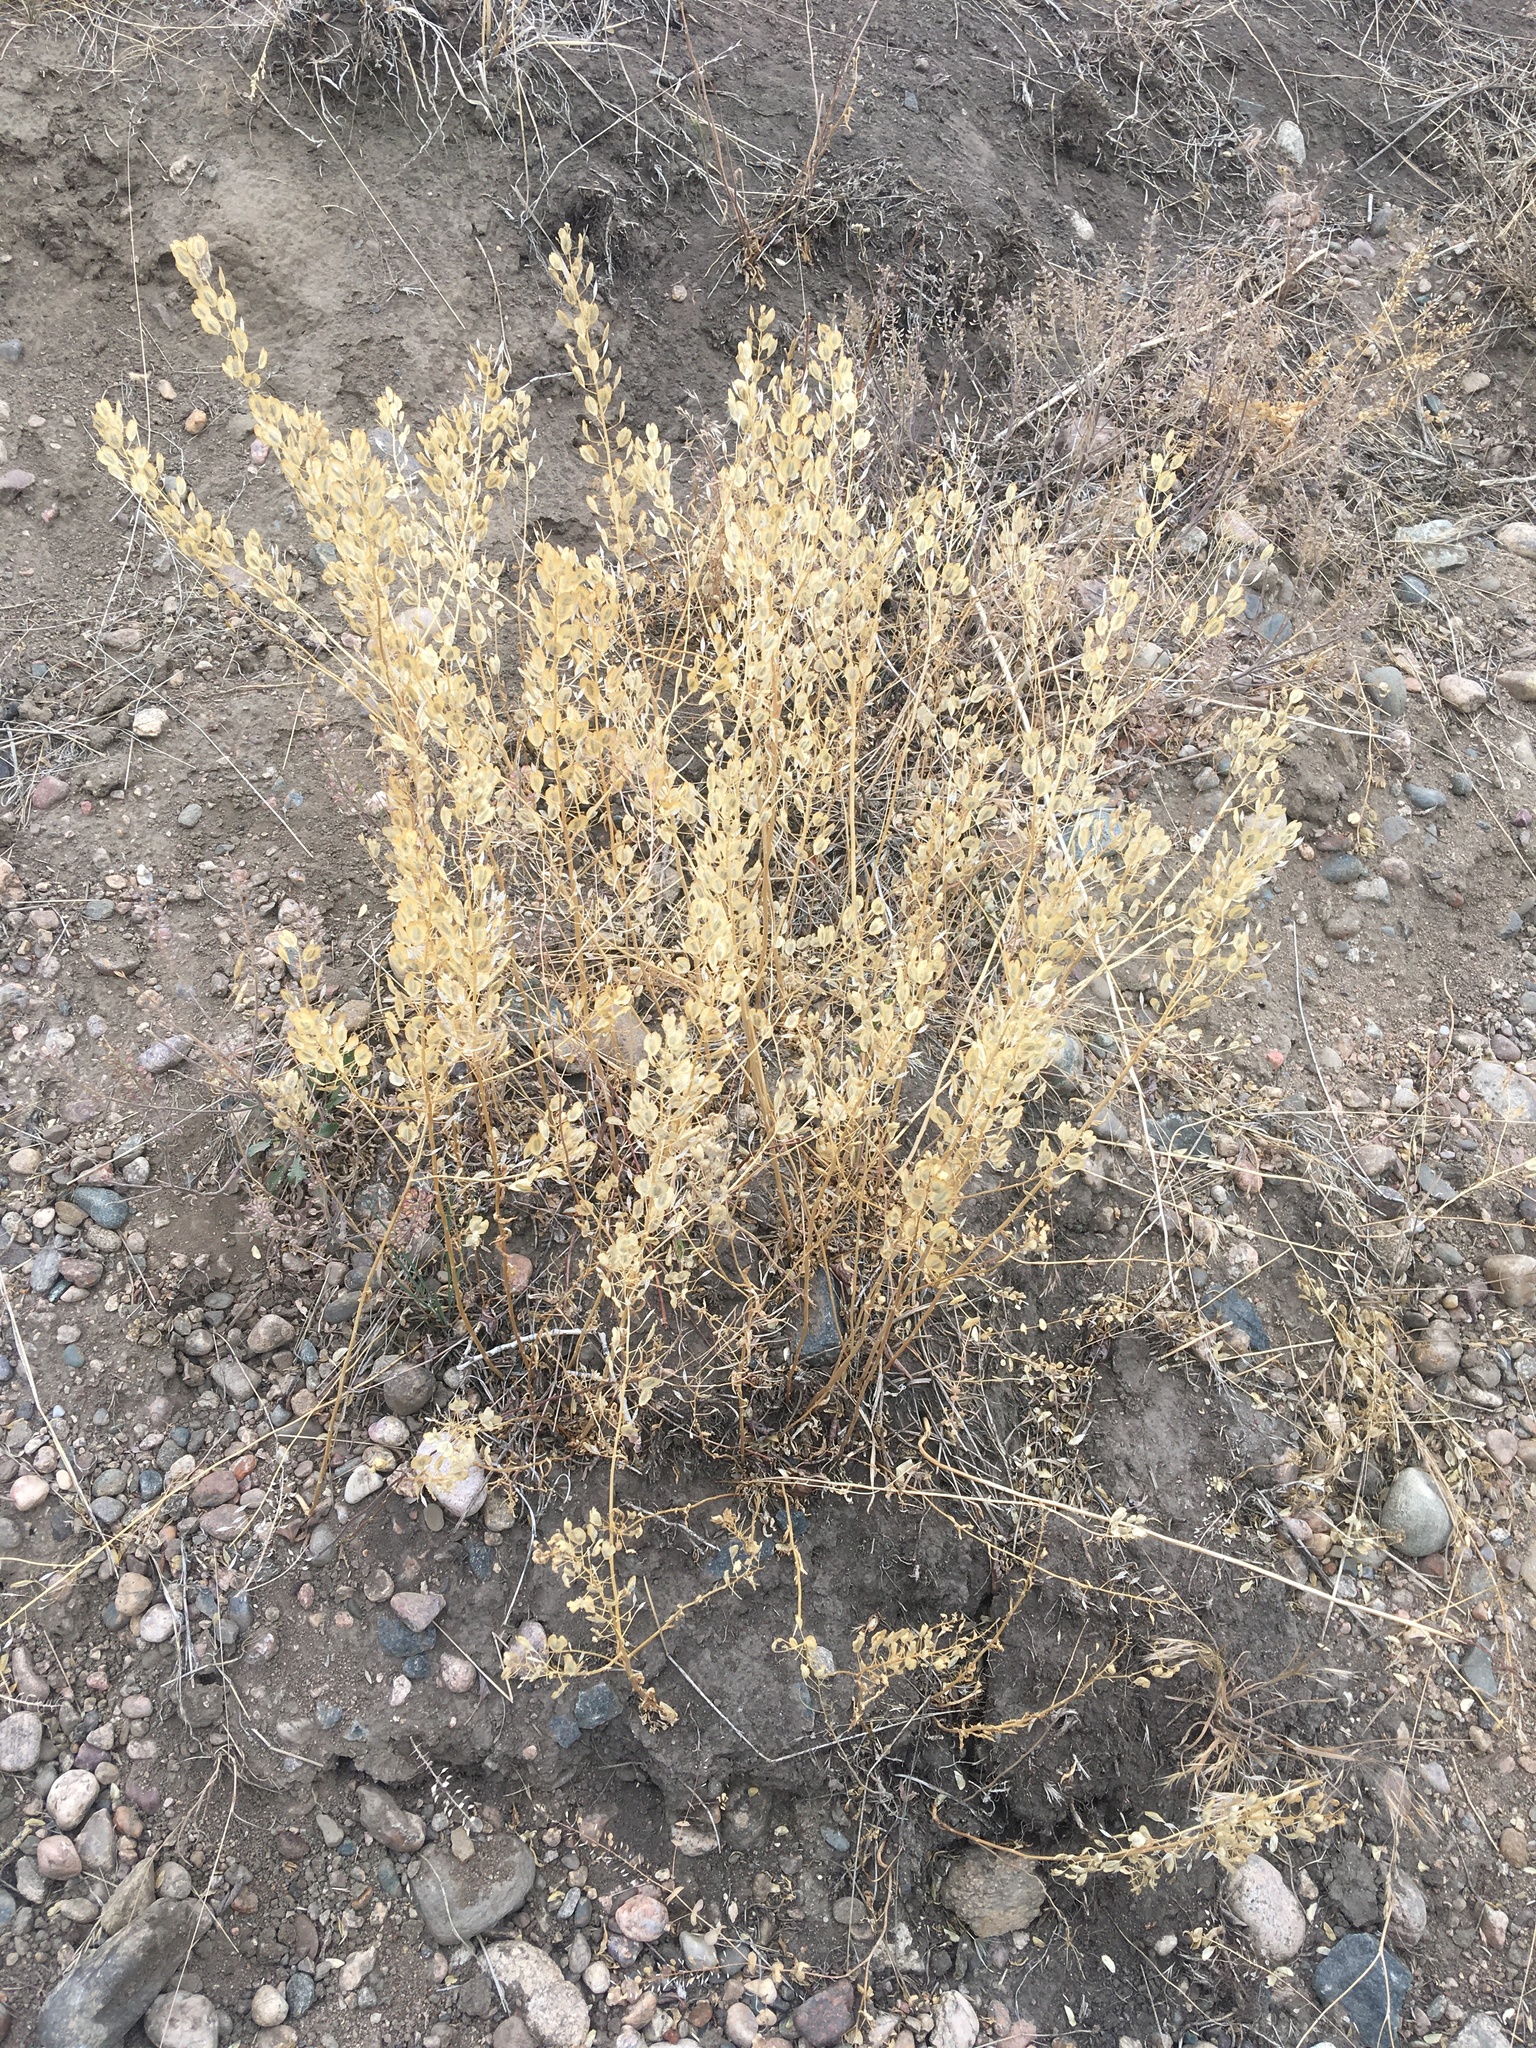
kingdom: Plantae
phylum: Tracheophyta
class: Magnoliopsida
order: Brassicales
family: Brassicaceae
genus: Thlaspi
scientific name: Thlaspi arvense
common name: Field pennycress
